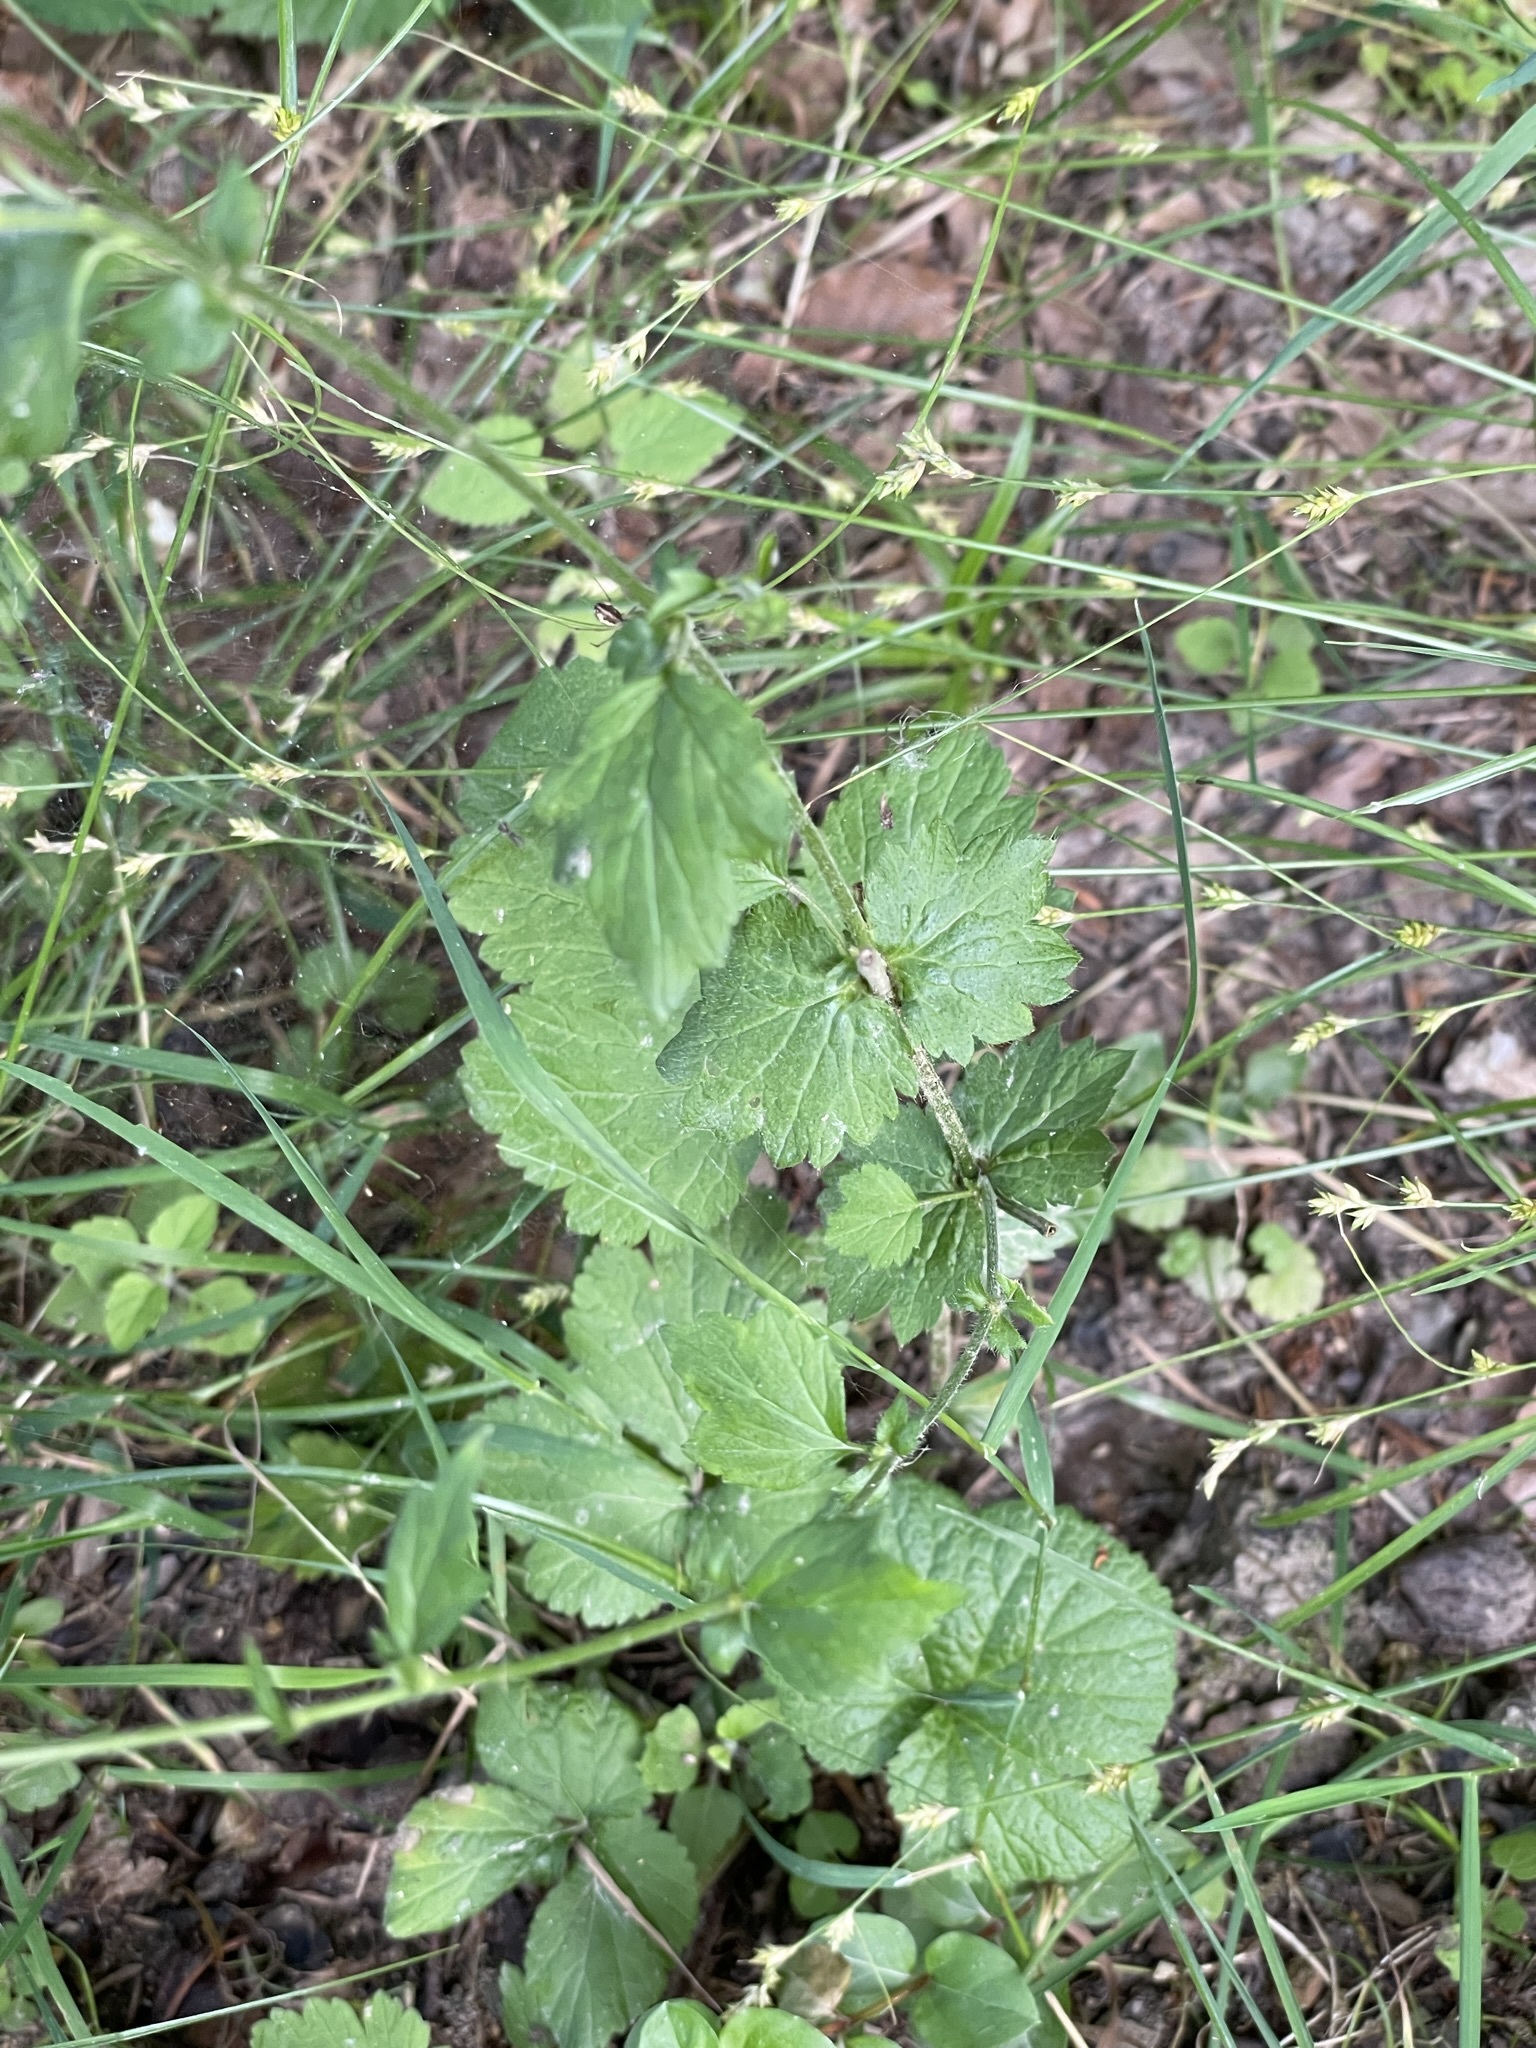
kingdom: Plantae
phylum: Tracheophyta
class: Magnoliopsida
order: Rosales
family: Rosaceae
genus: Geum
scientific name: Geum urbanum
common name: Wood avens
